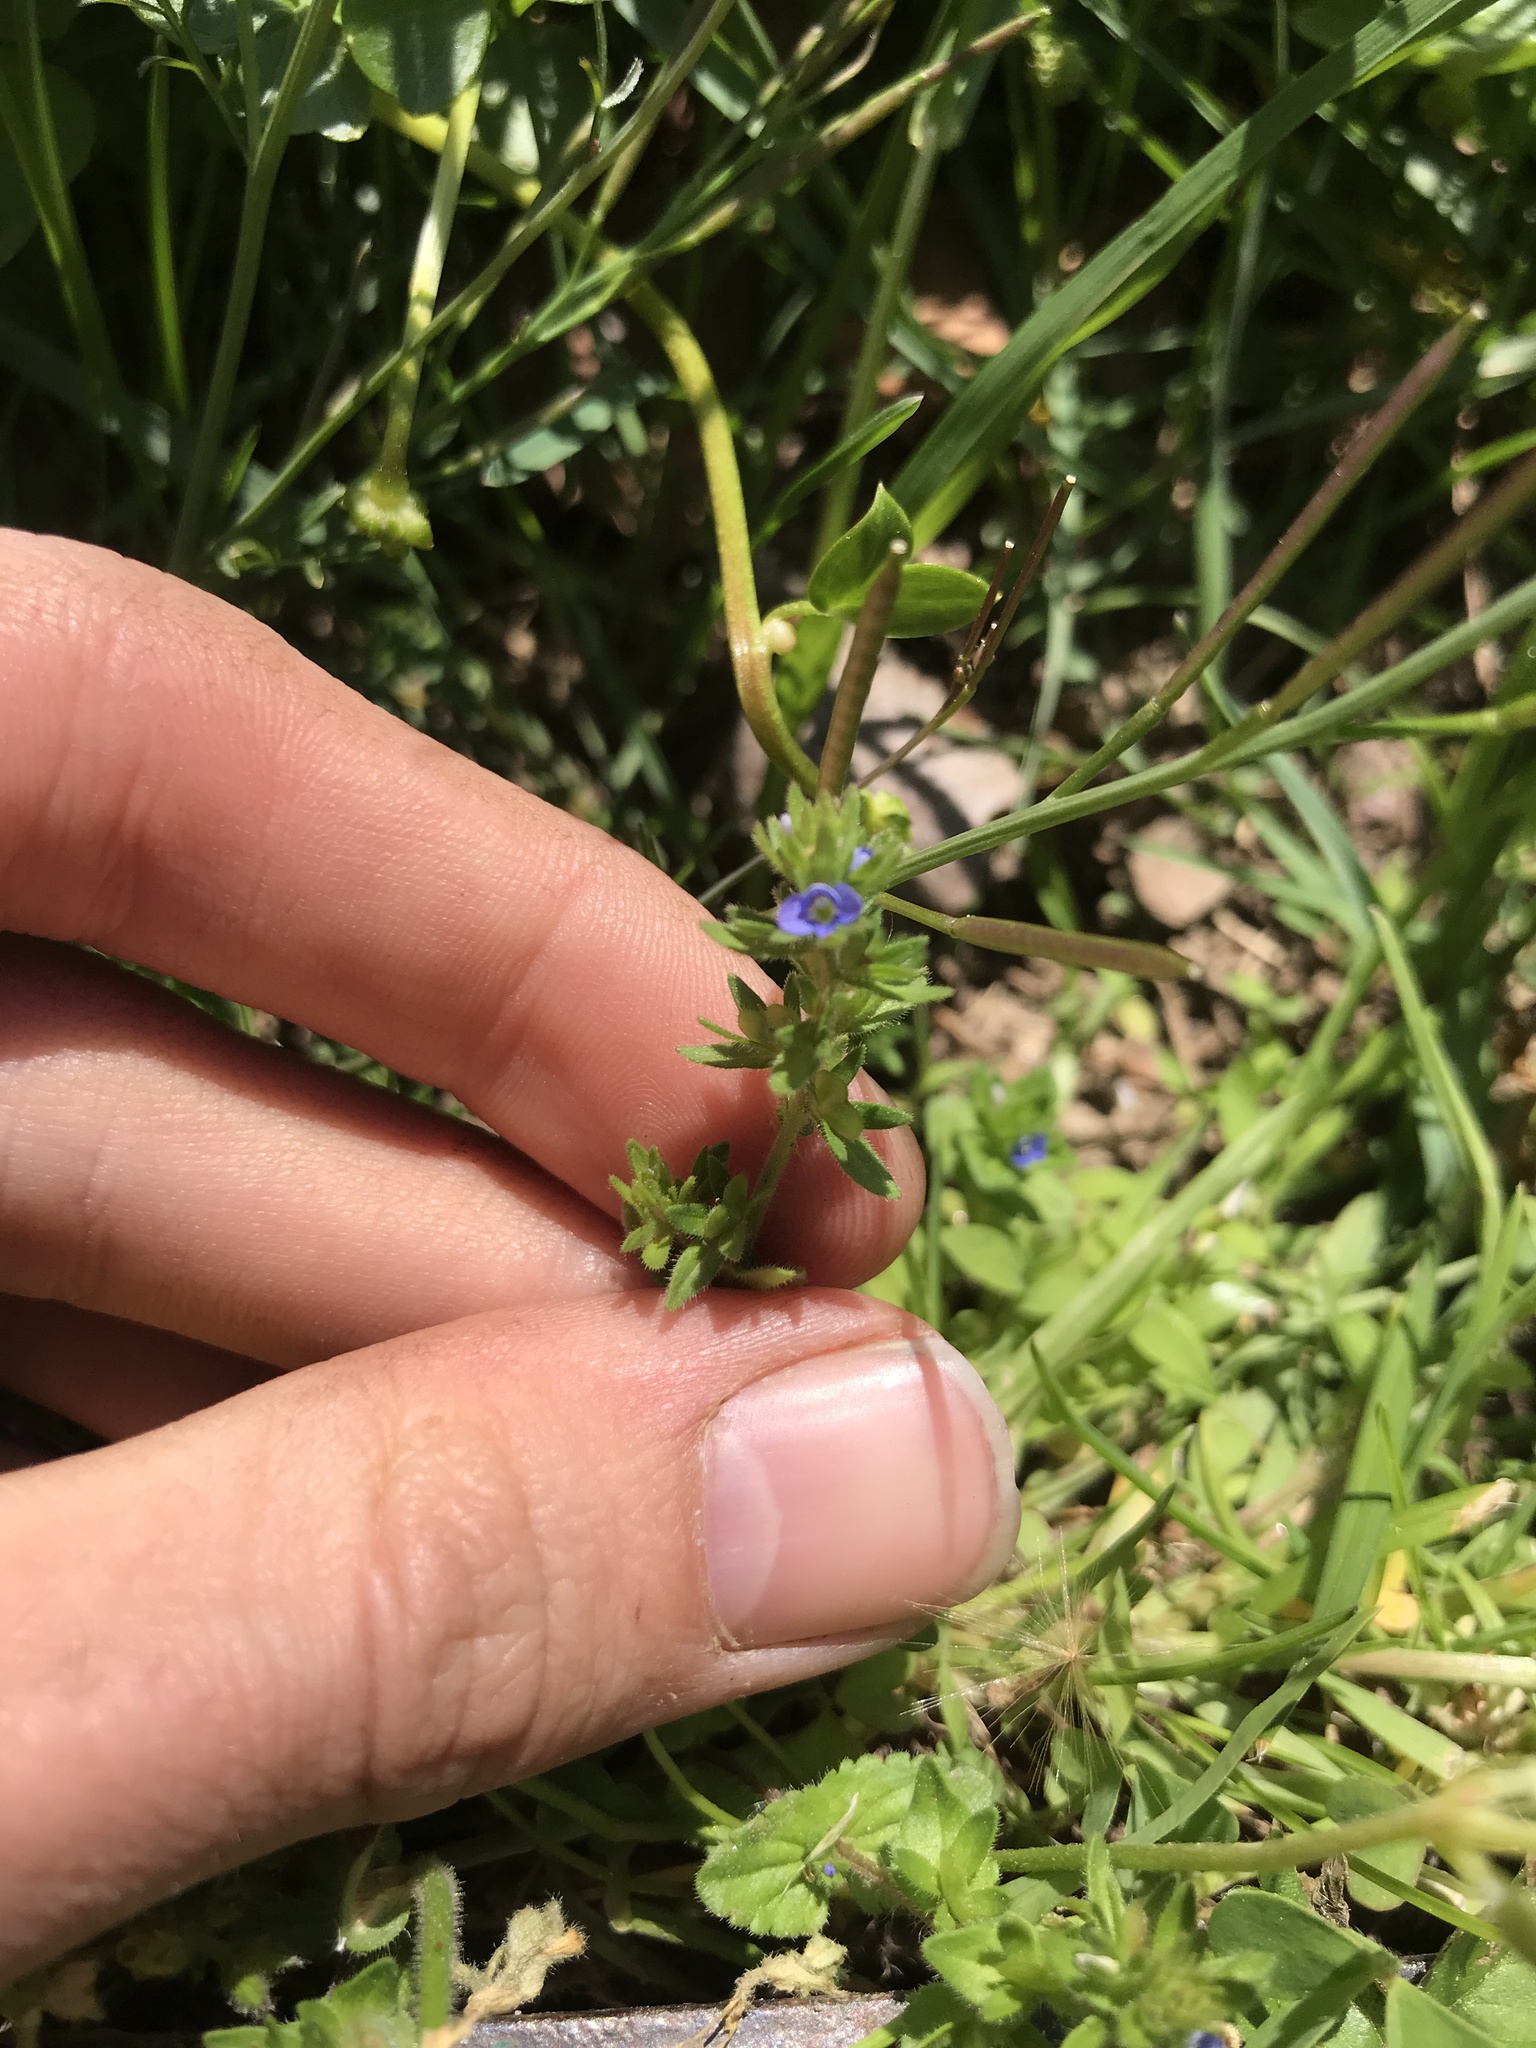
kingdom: Plantae
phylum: Tracheophyta
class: Magnoliopsida
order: Lamiales
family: Plantaginaceae
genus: Veronica
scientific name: Veronica arvensis
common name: Corn speedwell
